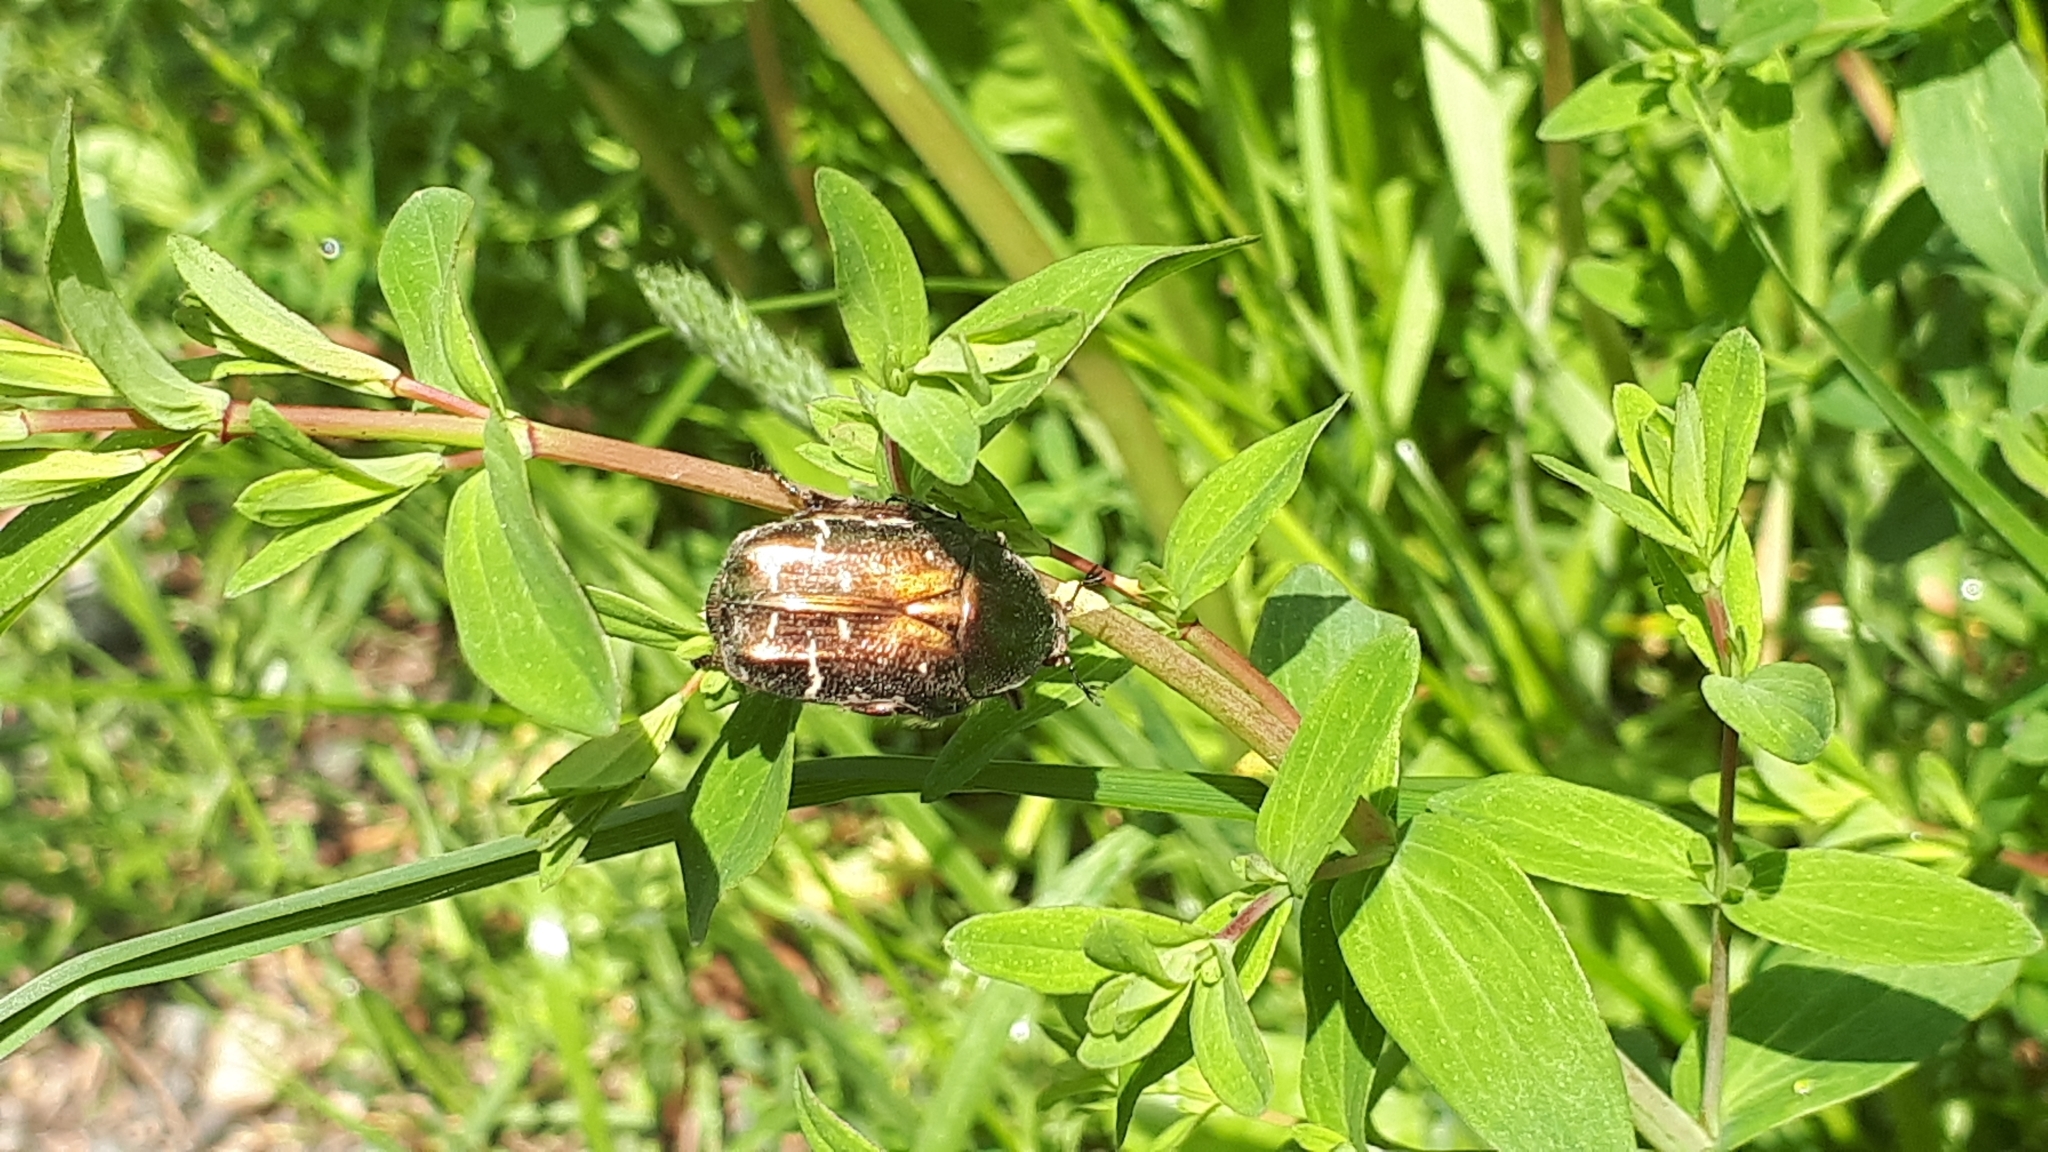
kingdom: Animalia
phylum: Arthropoda
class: Insecta
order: Coleoptera
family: Scarabaeidae
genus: Protaetia
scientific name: Protaetia cuprea
